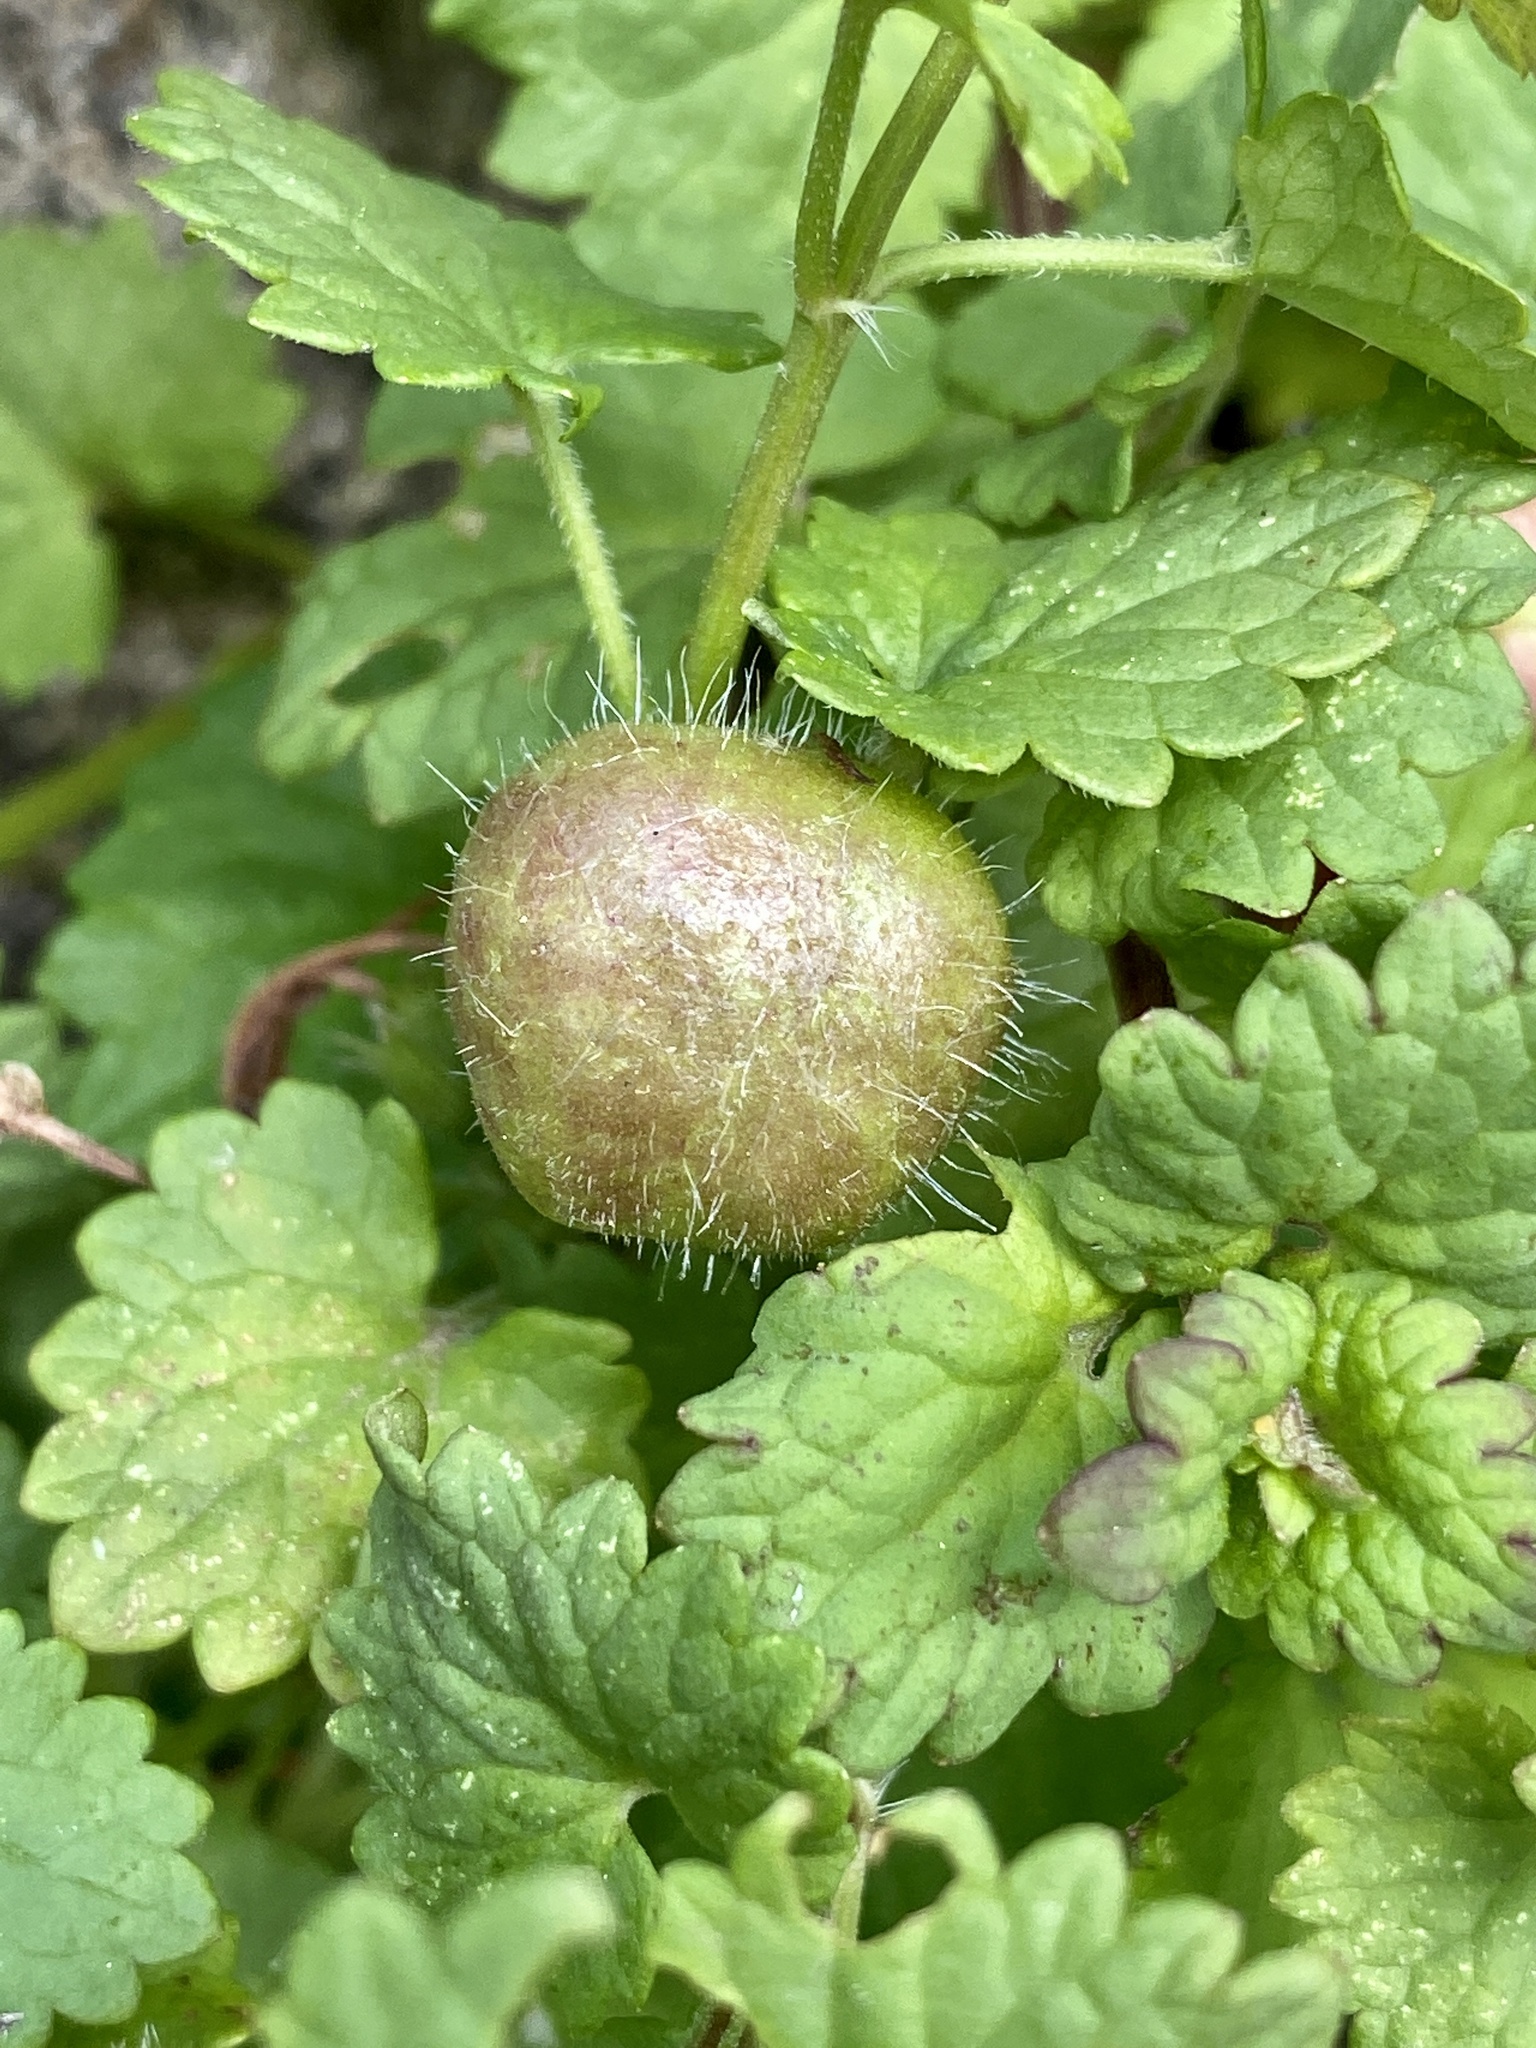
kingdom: Animalia
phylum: Arthropoda
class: Insecta
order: Hymenoptera
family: Cynipidae
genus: Liposthenes
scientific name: Liposthenes glechomae
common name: Gall wasp
